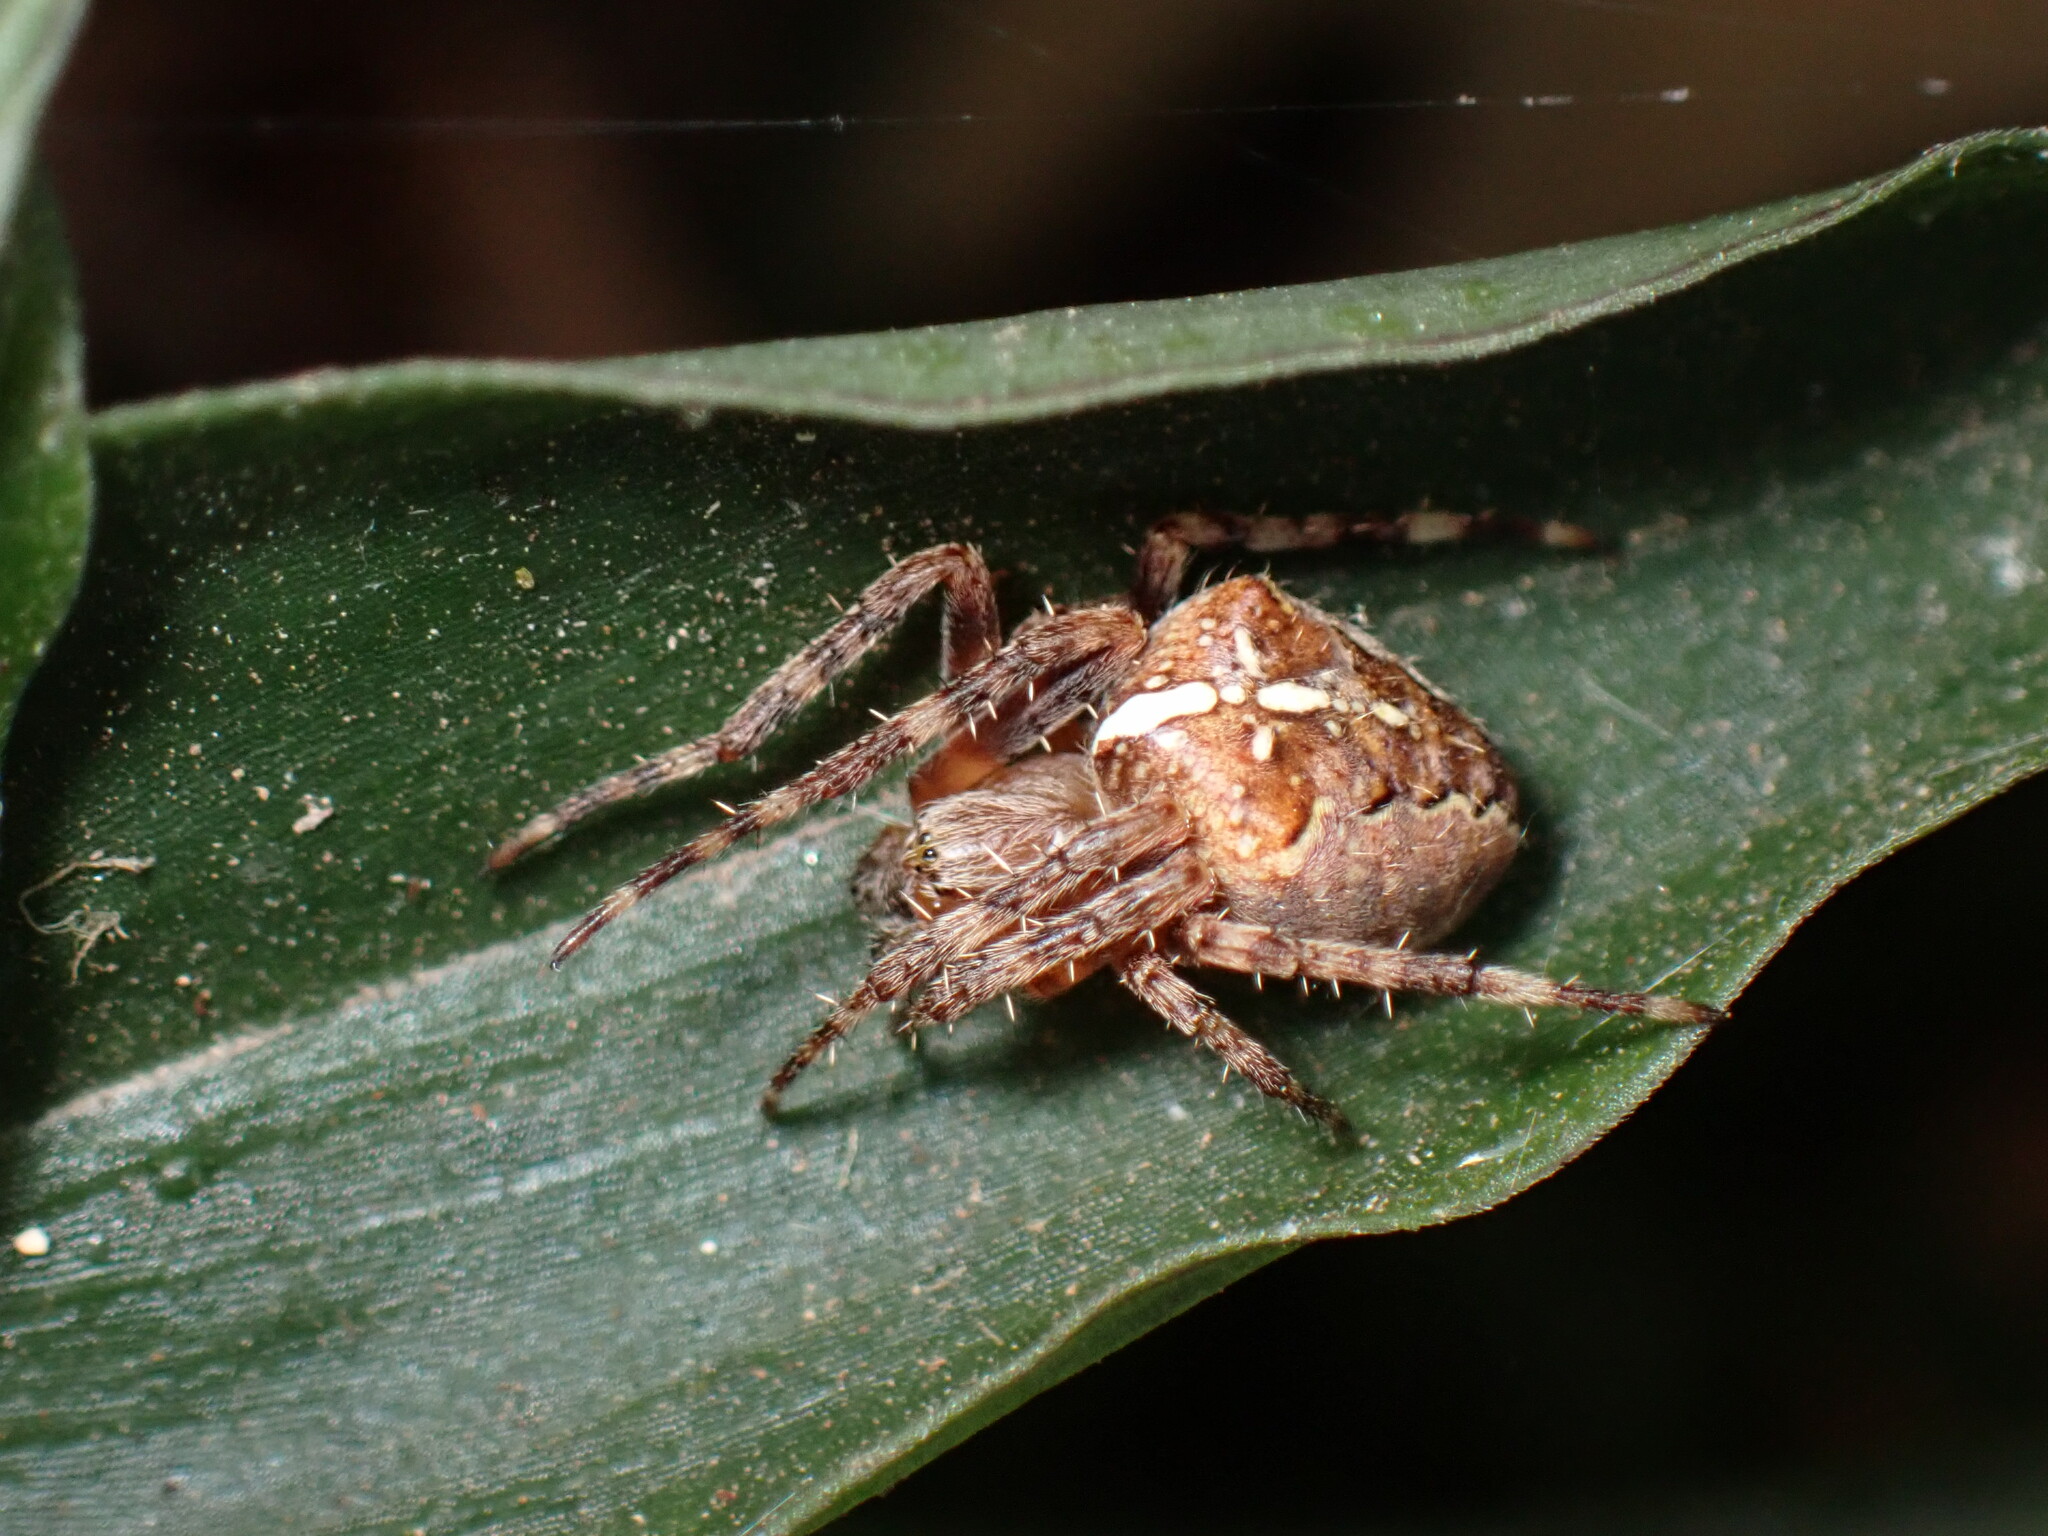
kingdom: Animalia
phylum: Arthropoda
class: Arachnida
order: Araneae
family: Araneidae
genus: Araneus
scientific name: Araneus diadematus
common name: Cross orbweaver
